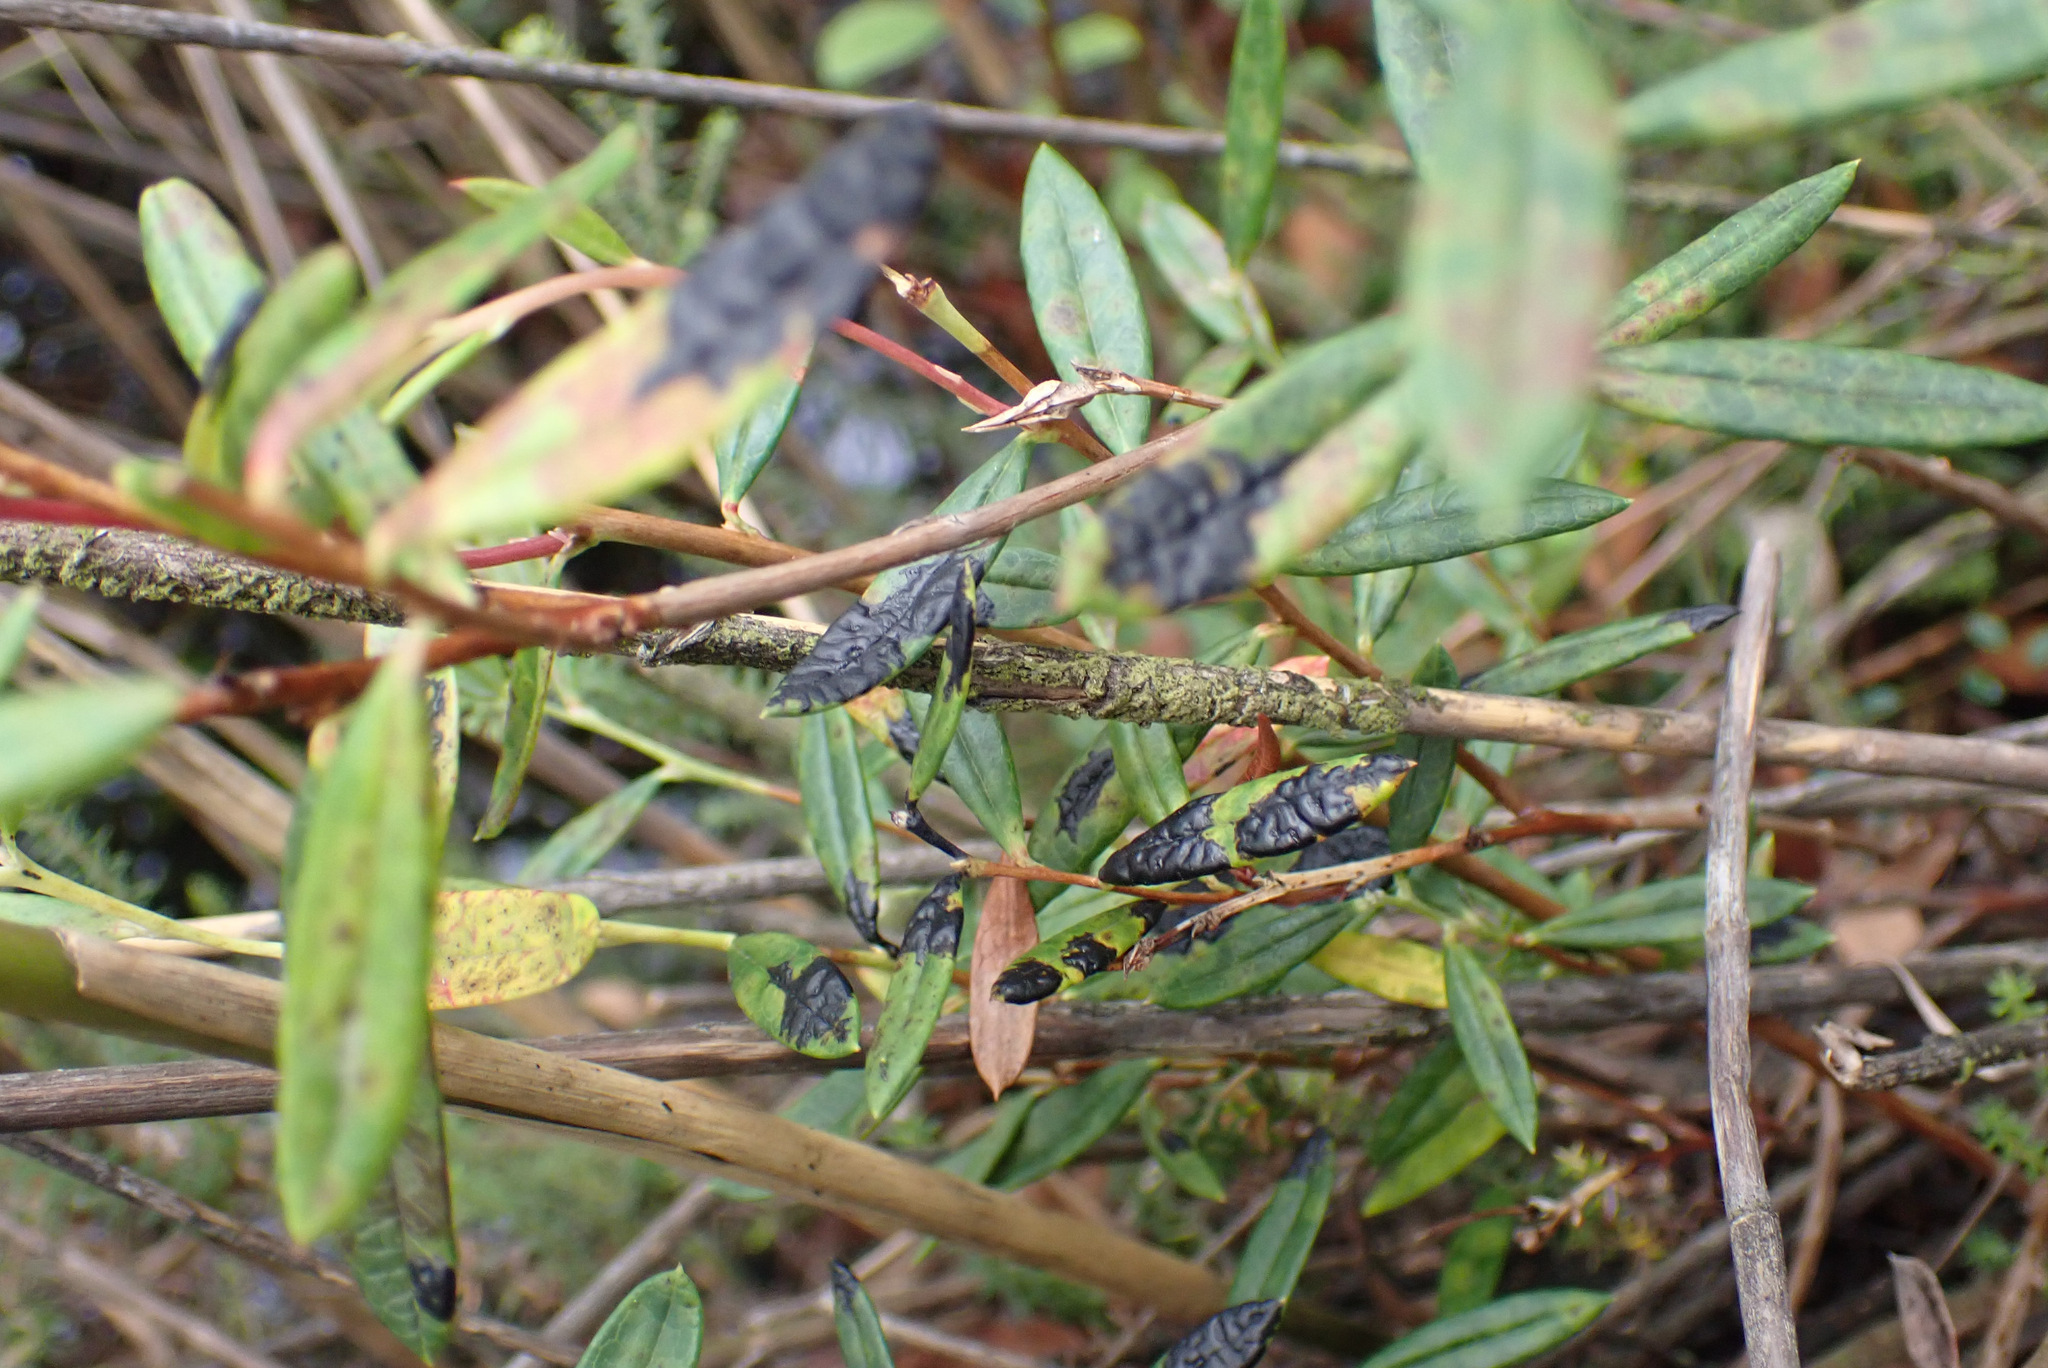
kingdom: Fungi
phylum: Ascomycota
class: Leotiomycetes
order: Rhytismatales
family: Rhytismataceae
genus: Rhytisma
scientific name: Rhytisma andromedae
